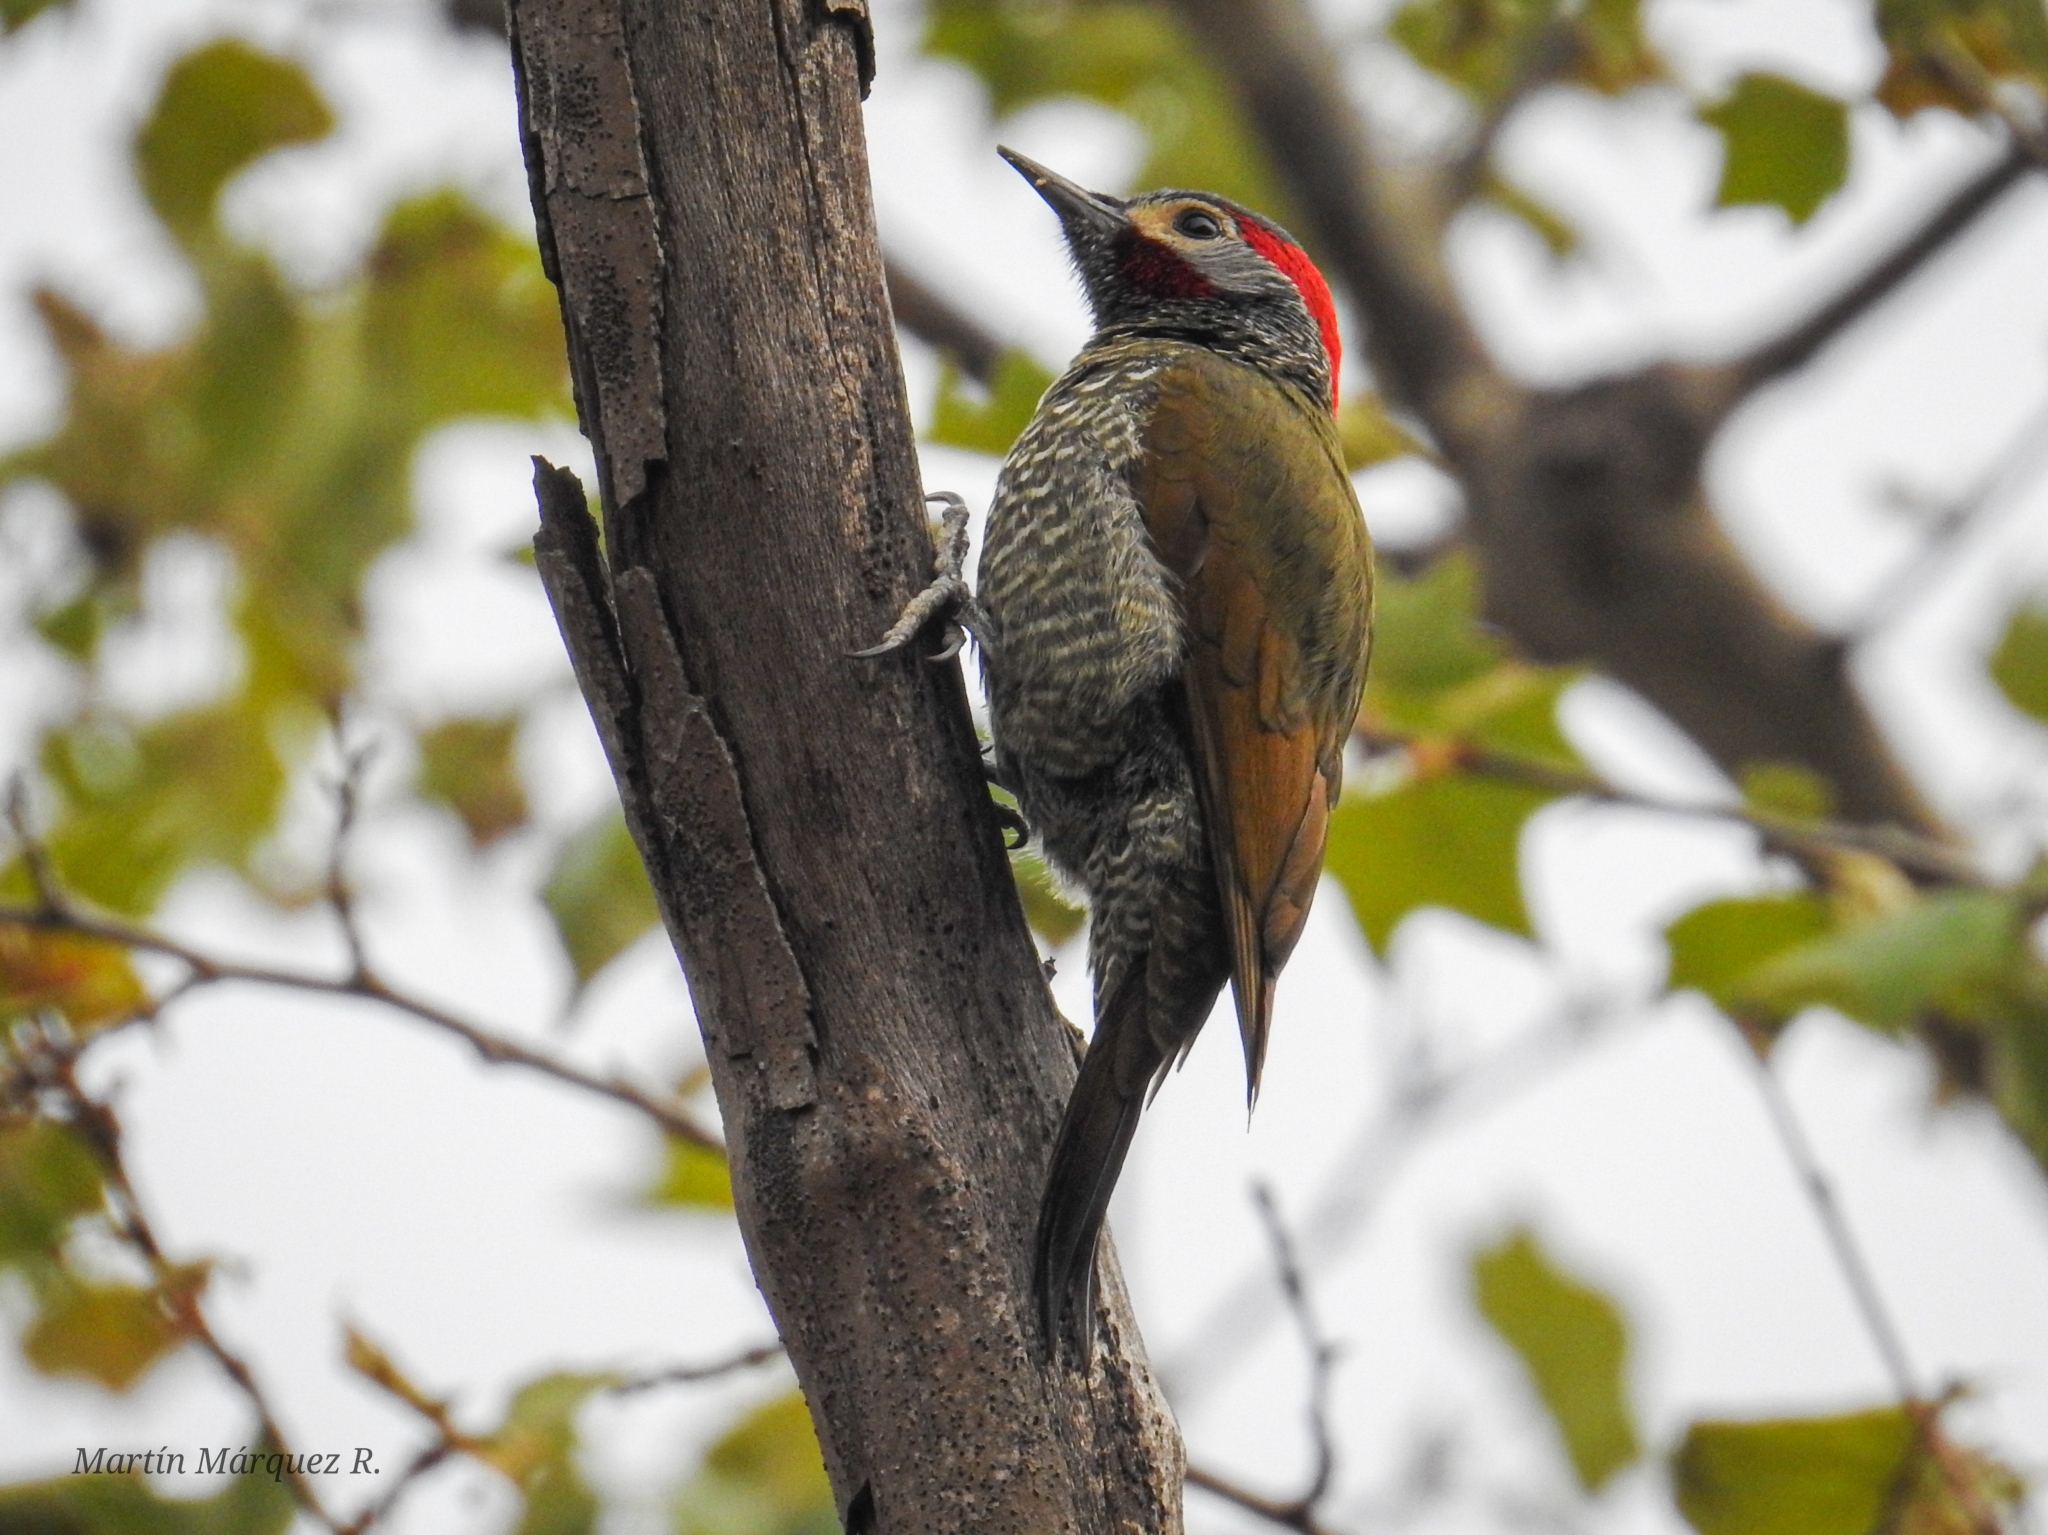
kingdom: Animalia
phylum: Chordata
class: Aves
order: Piciformes
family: Picidae
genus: Colaptes
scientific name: Colaptes rubiginosus
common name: Golden-olive woodpecker
